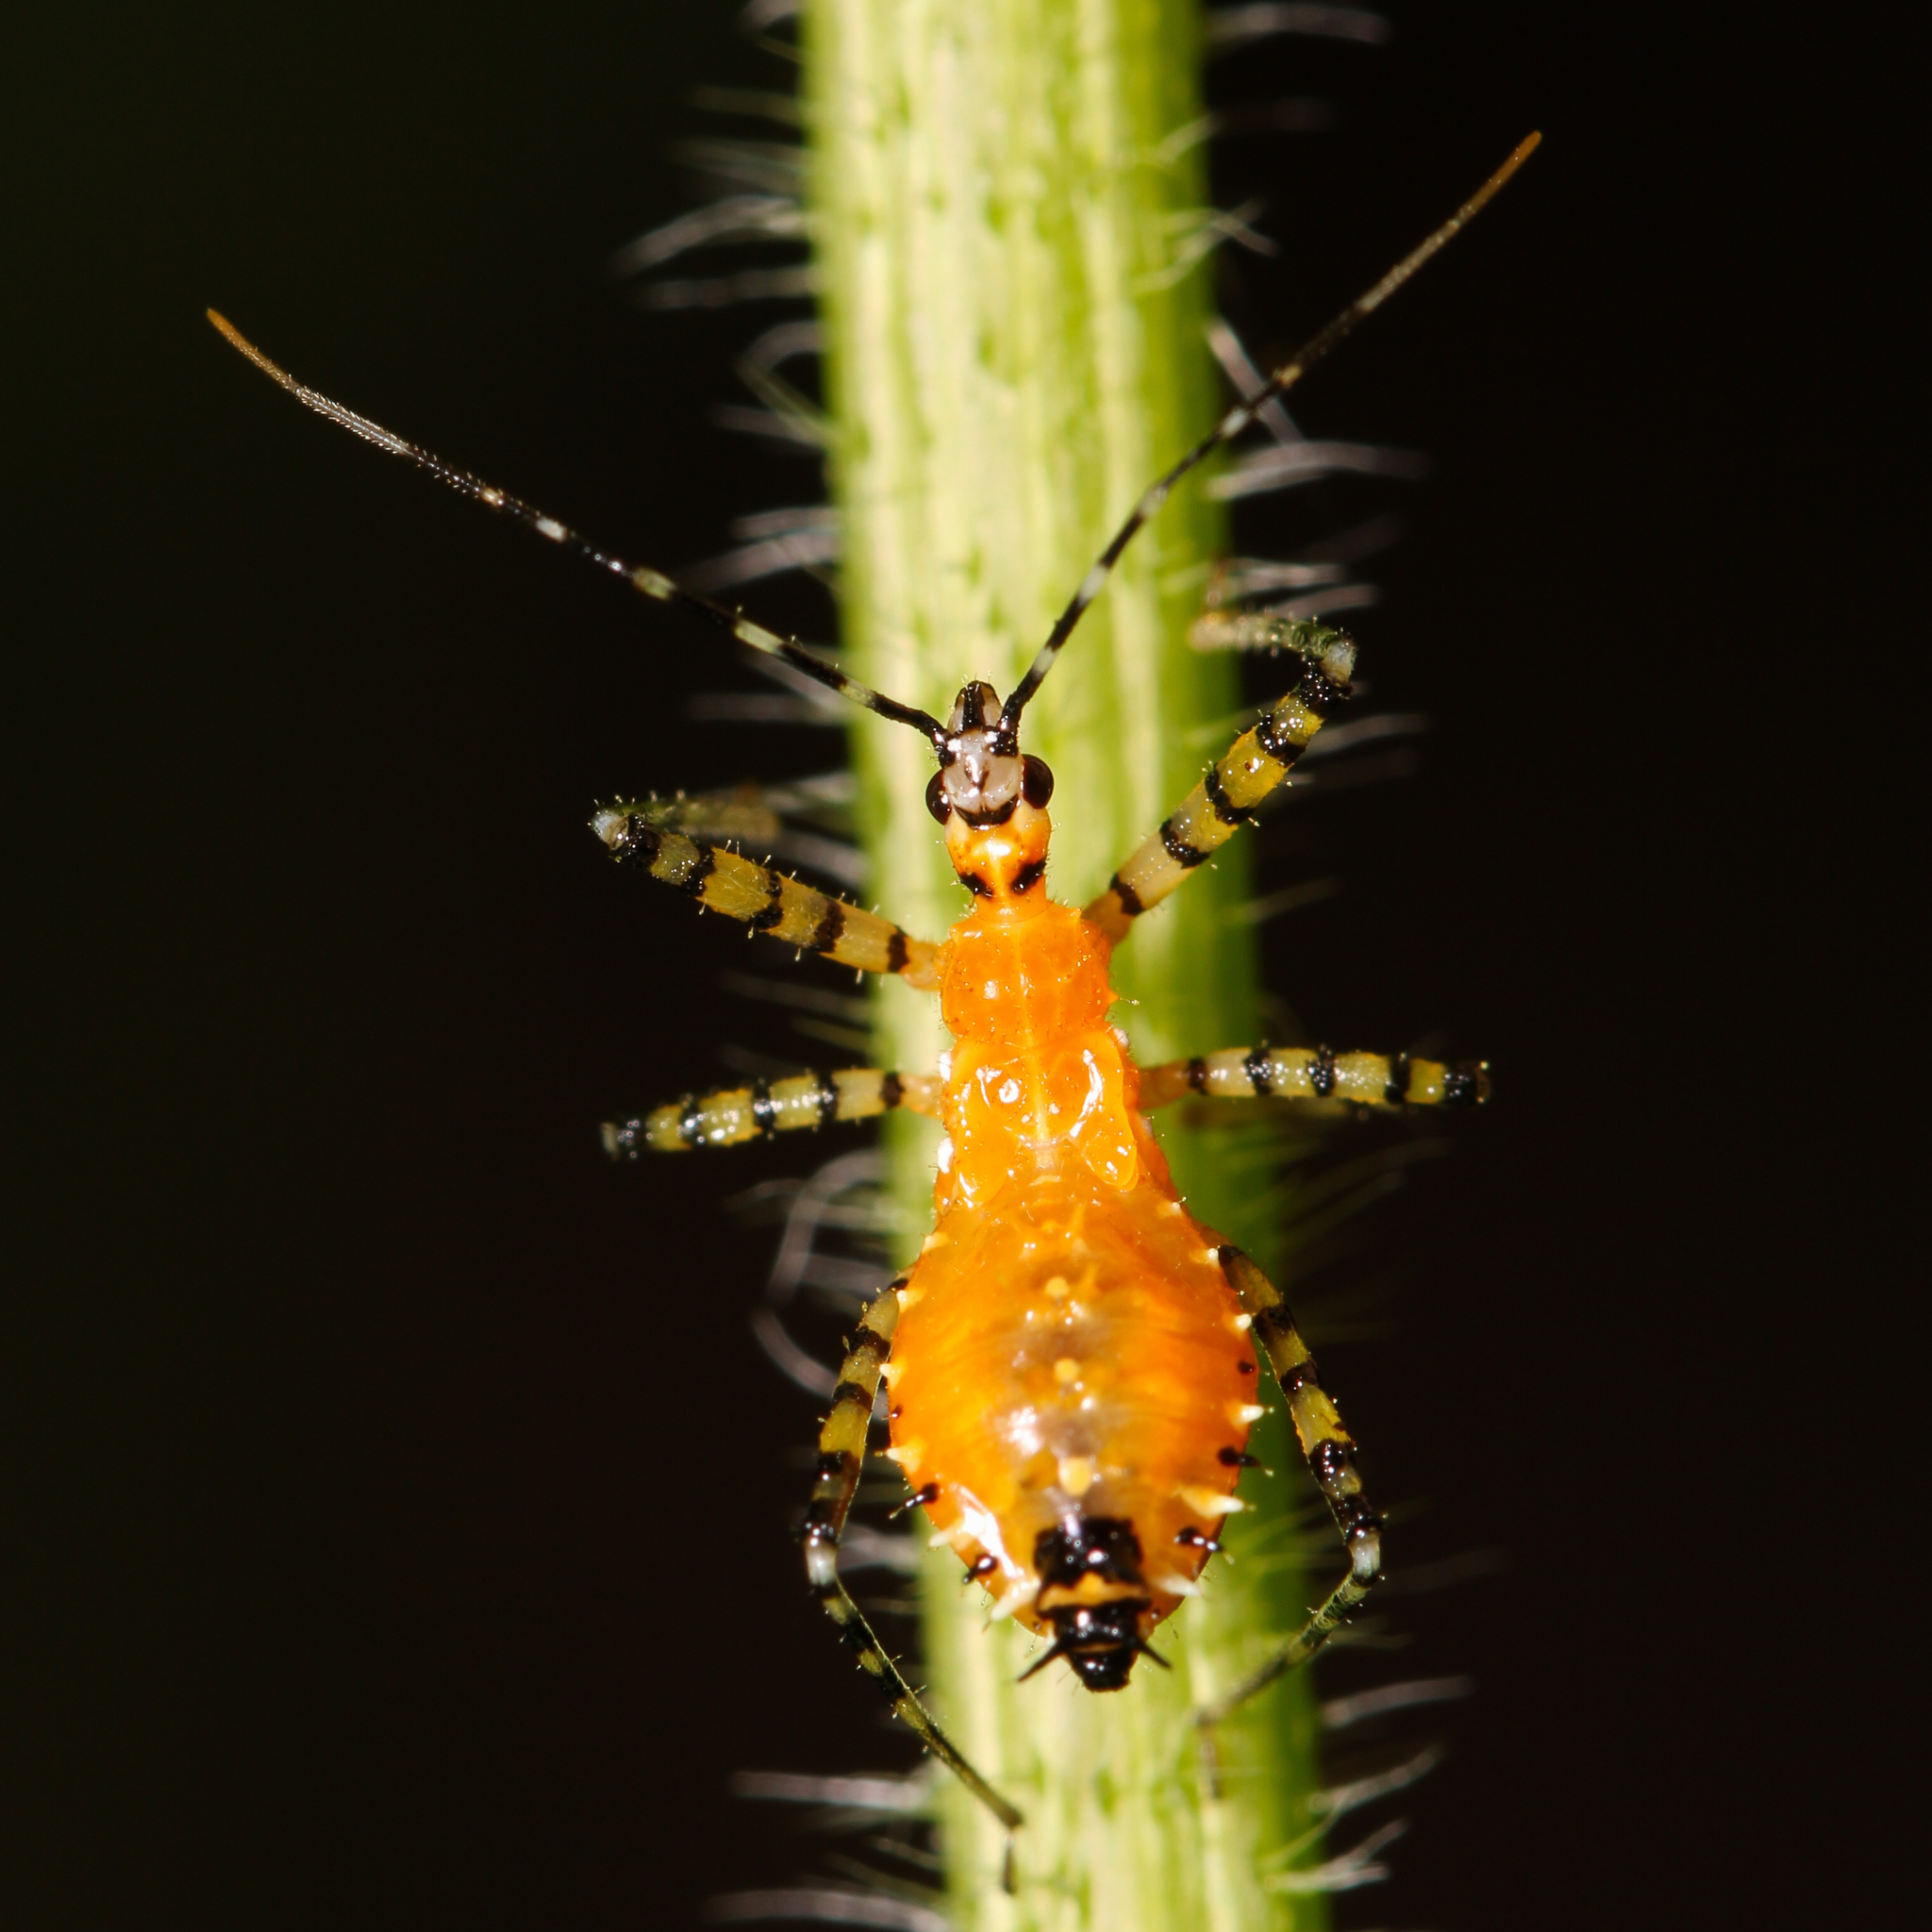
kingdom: Animalia
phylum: Arthropoda
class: Insecta
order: Hemiptera
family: Reduviidae
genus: Pselliopus
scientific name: Pselliopus barberi
